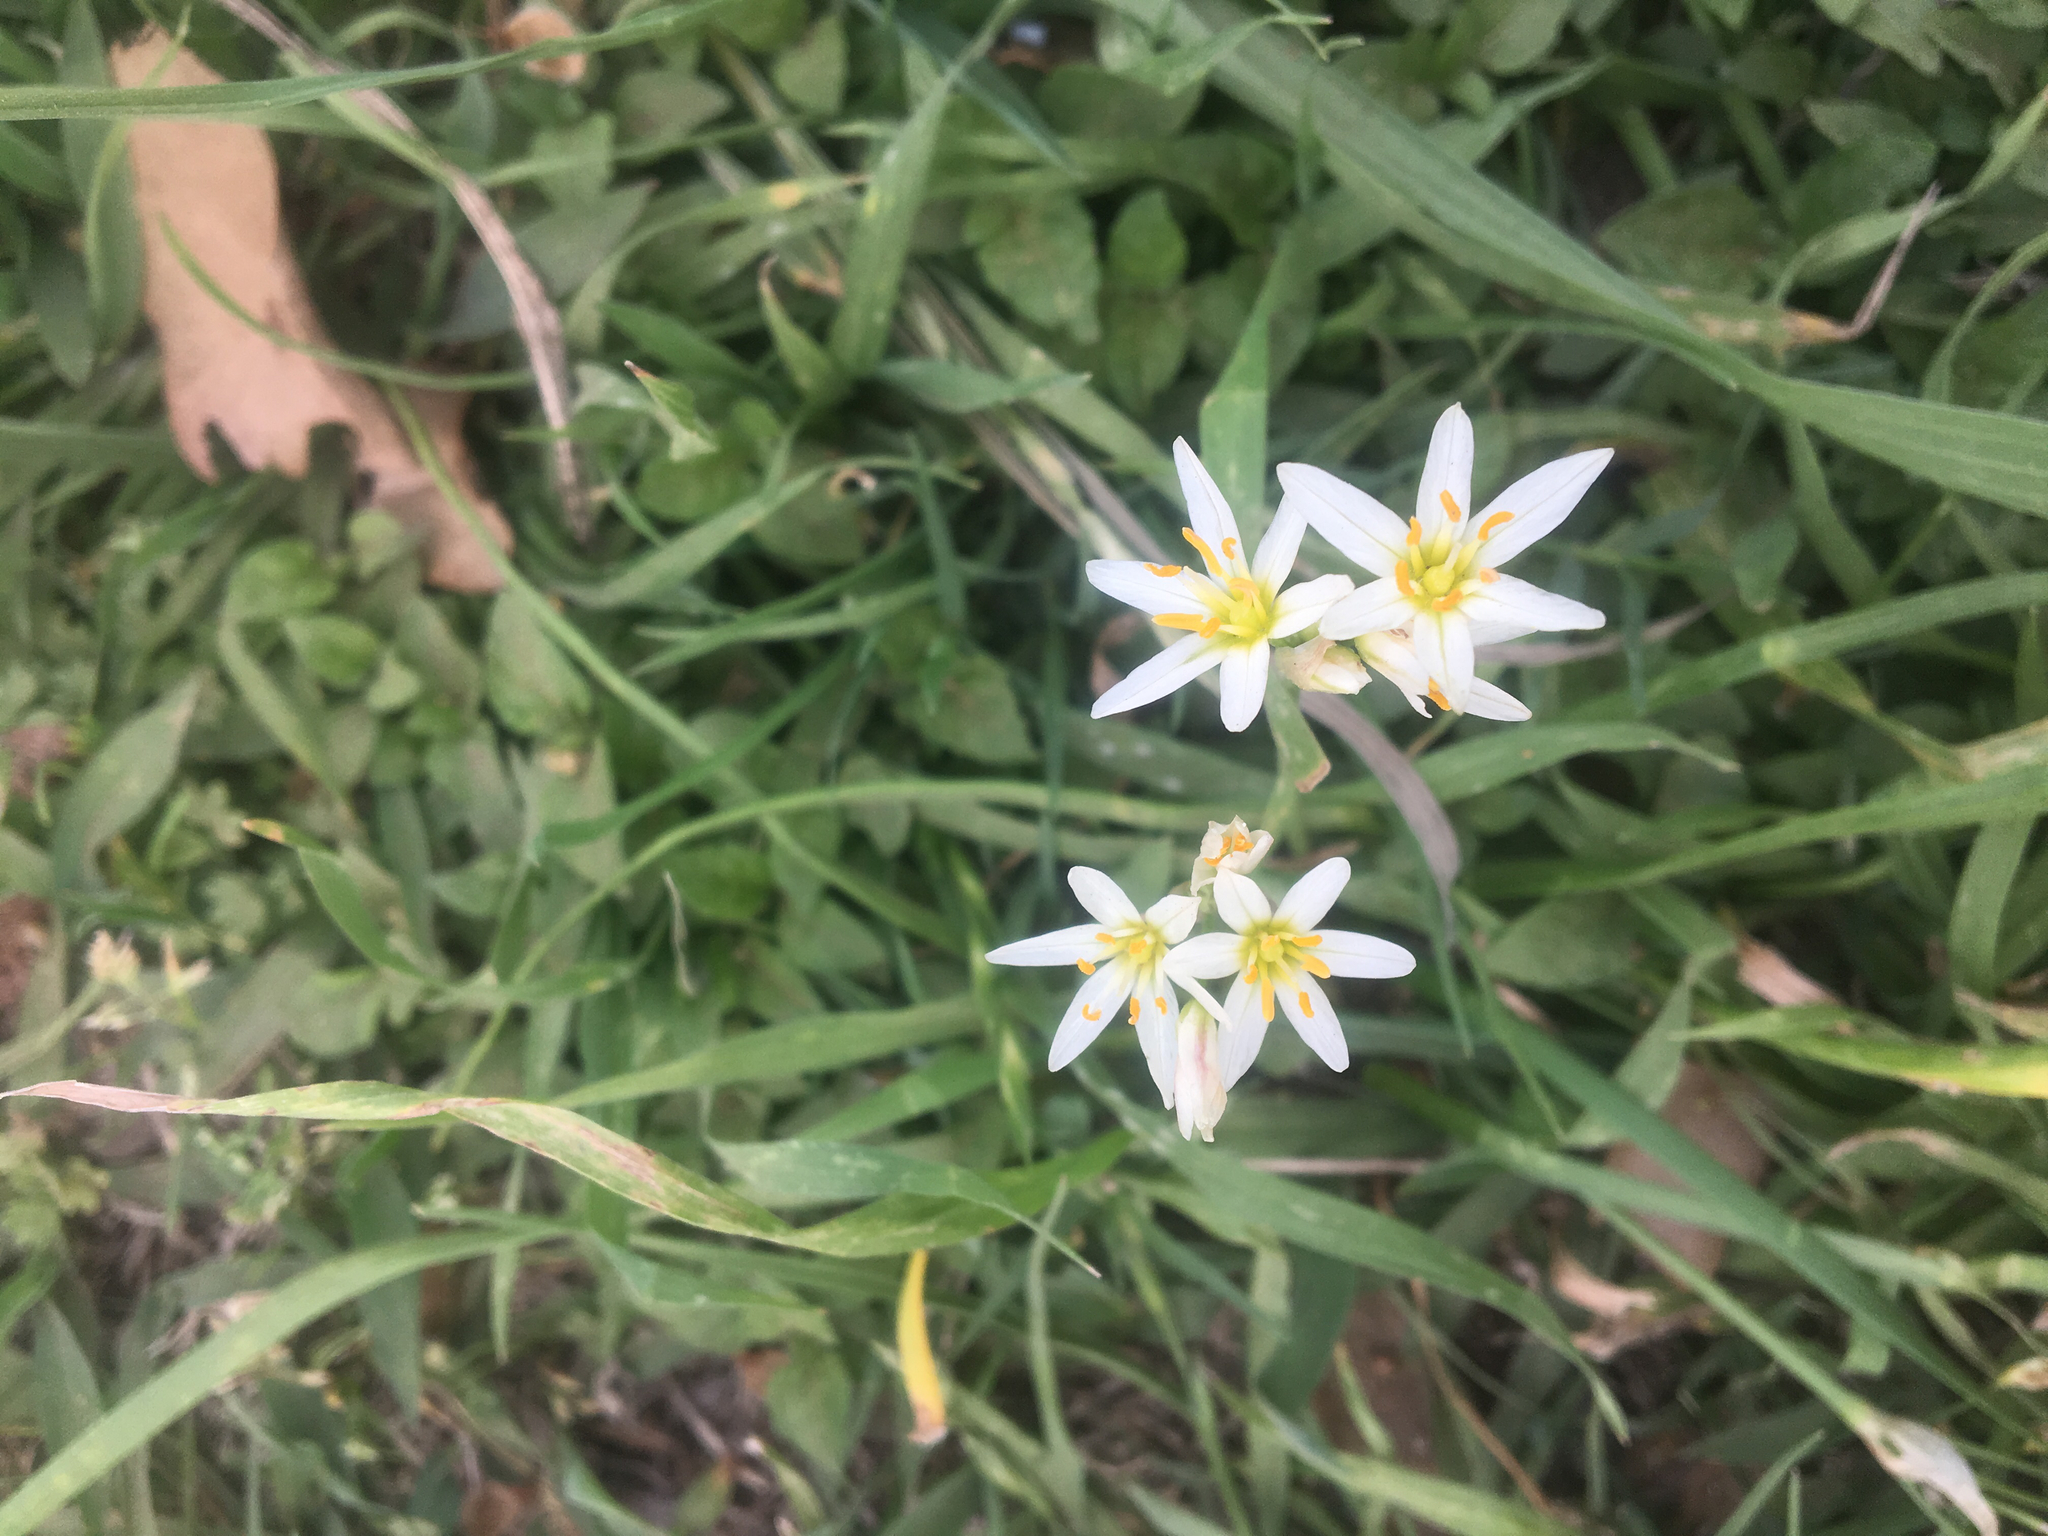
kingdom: Plantae
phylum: Tracheophyta
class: Liliopsida
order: Asparagales
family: Amaryllidaceae
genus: Nothoscordum
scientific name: Nothoscordum bivalve
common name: Crow-poison
